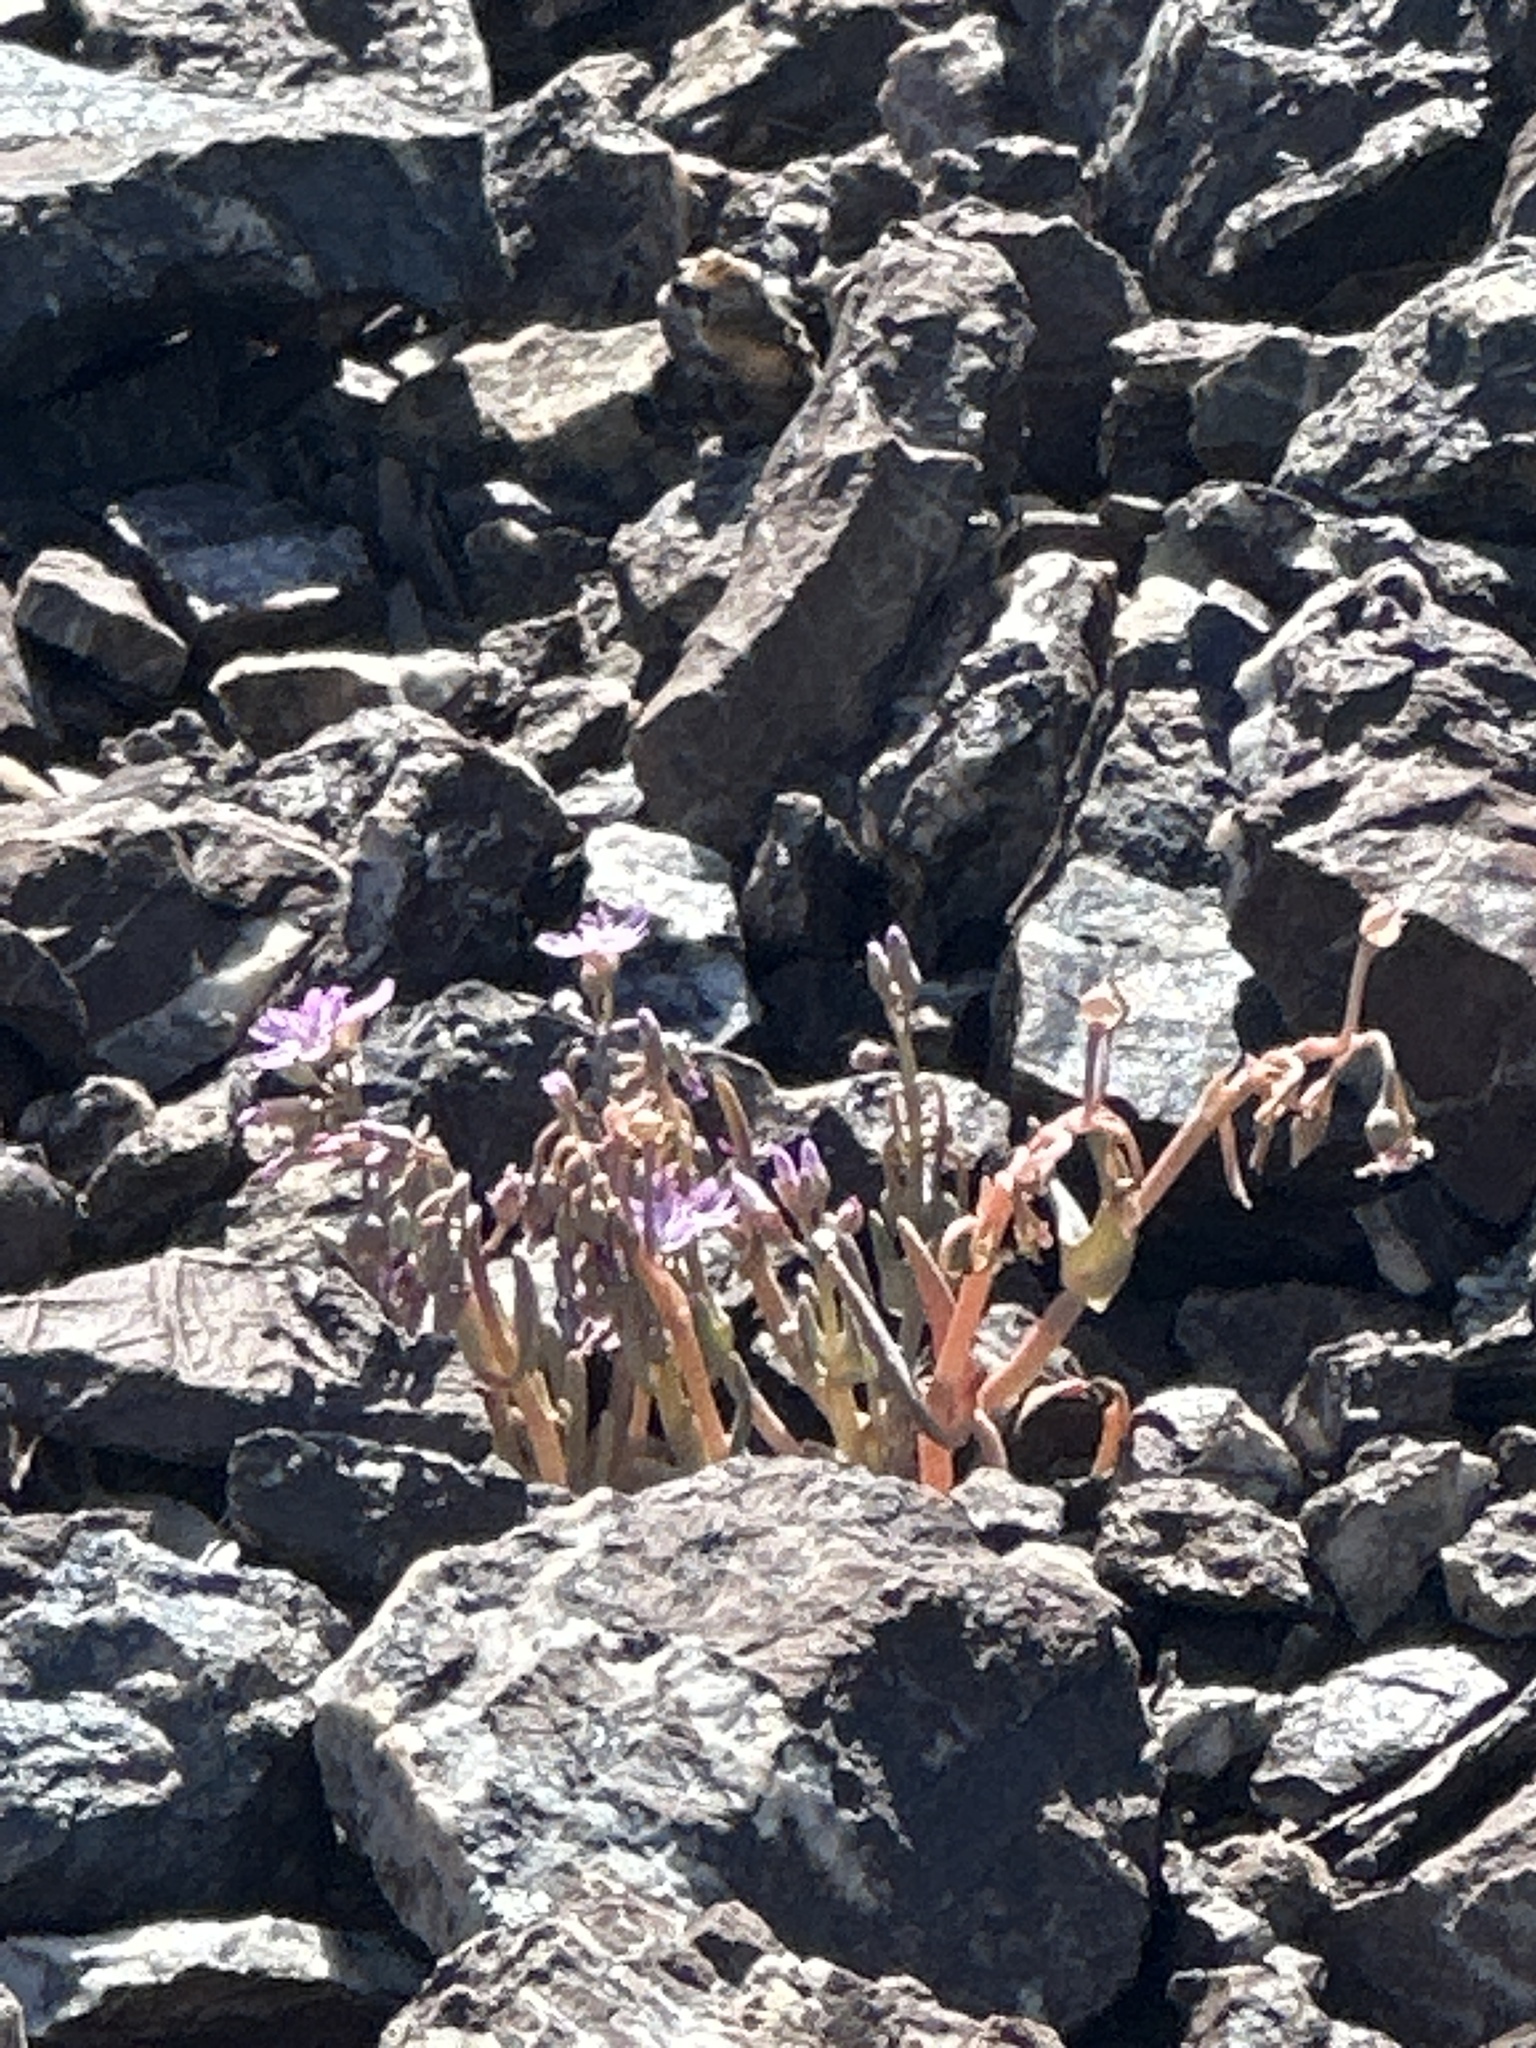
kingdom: Plantae
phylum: Tracheophyta
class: Magnoliopsida
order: Caryophyllales
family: Montiaceae
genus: Claytonia
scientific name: Claytonia gypsophiloides
